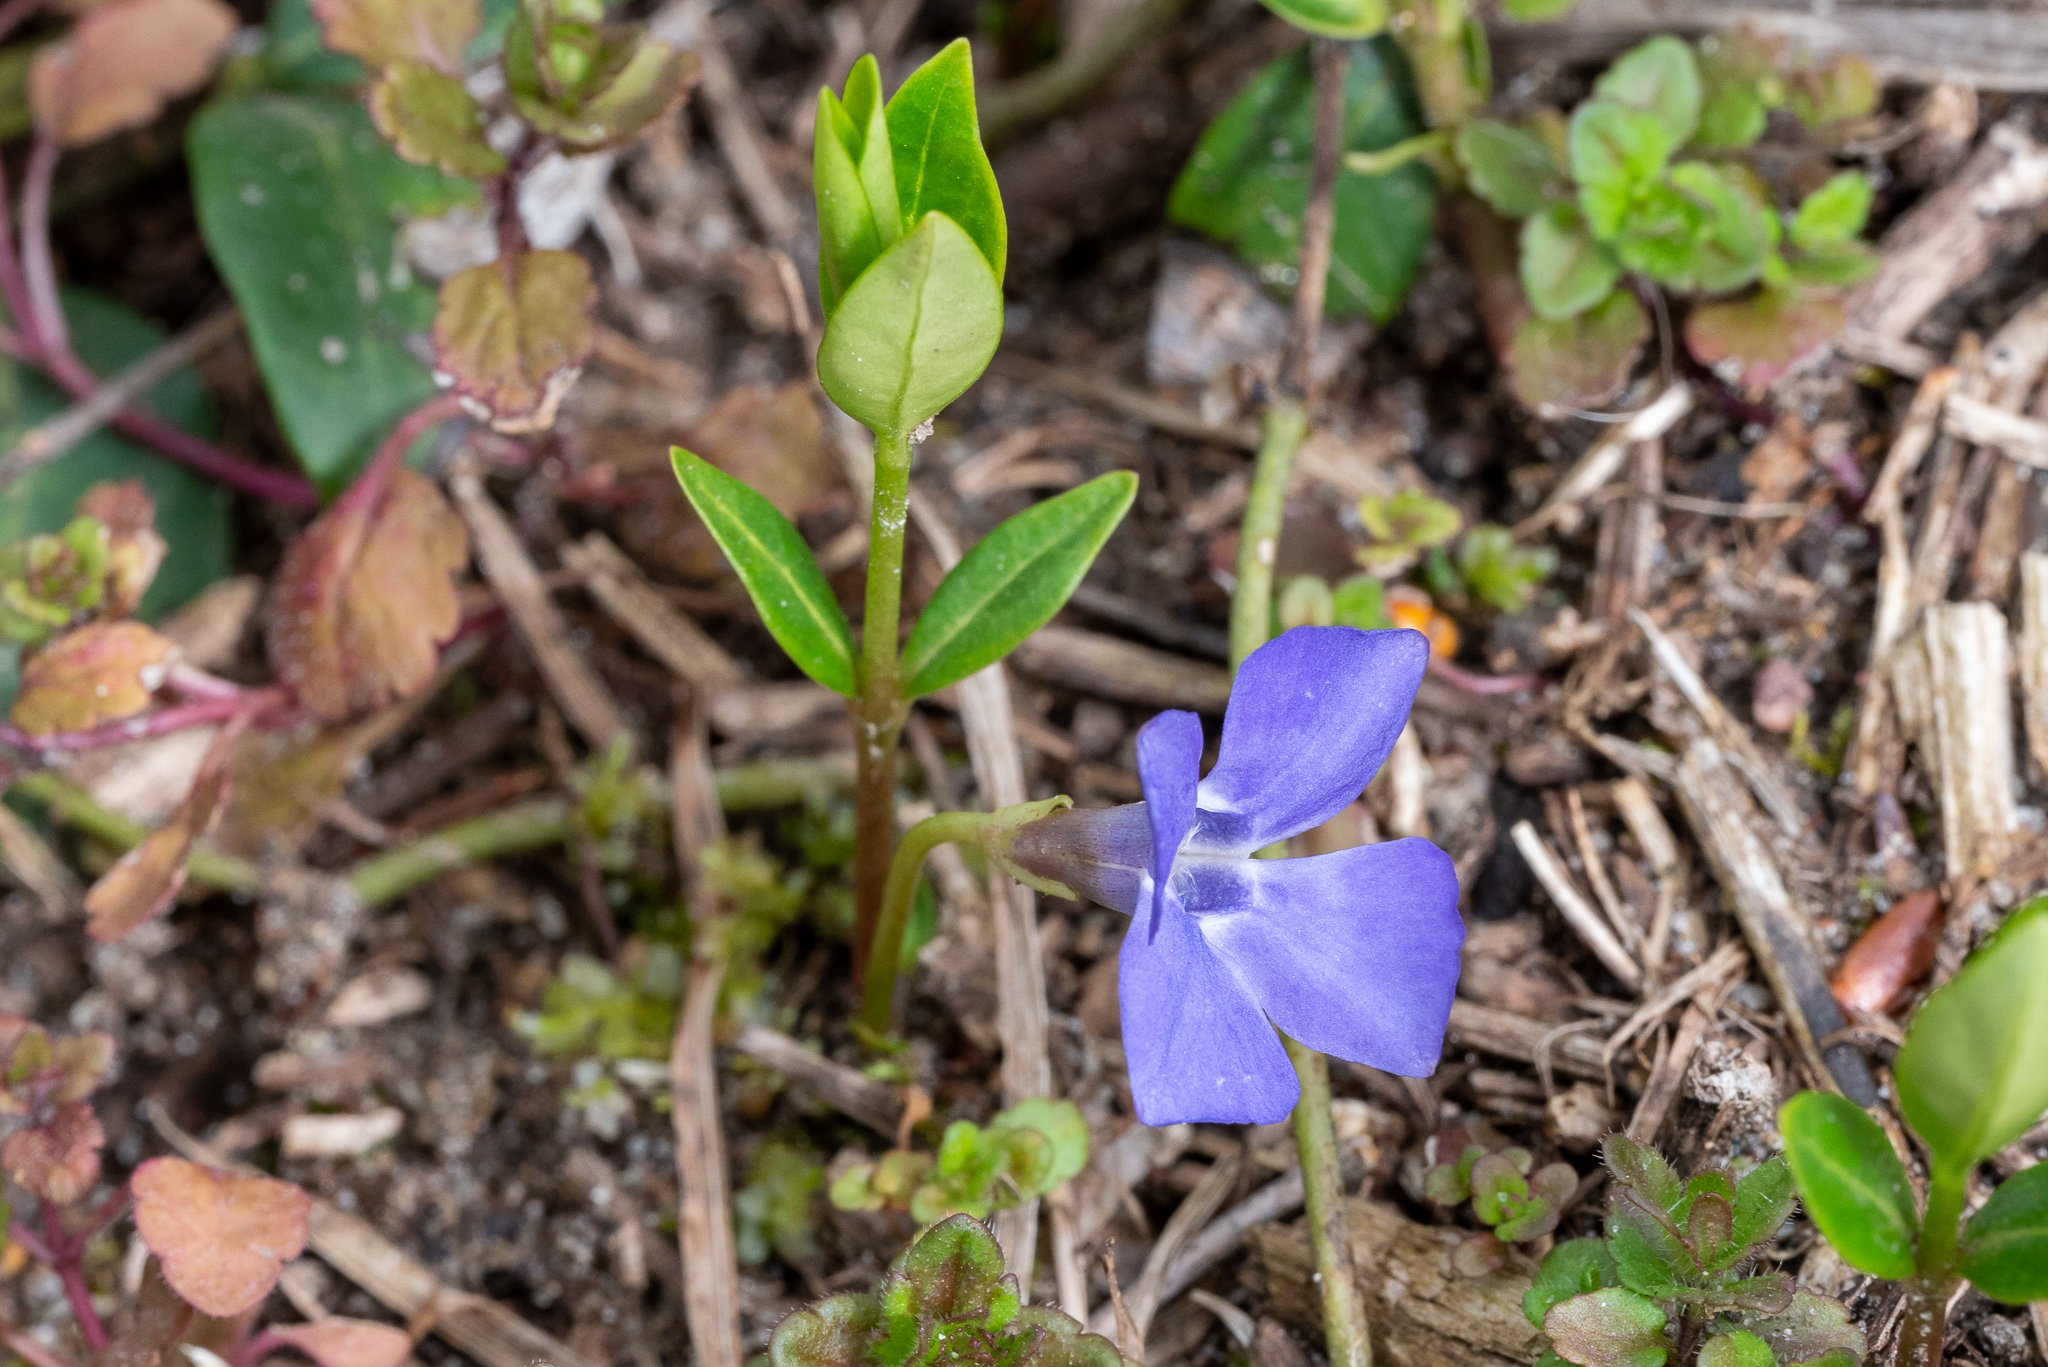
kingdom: Plantae
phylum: Tracheophyta
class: Magnoliopsida
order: Gentianales
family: Apocynaceae
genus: Vinca
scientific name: Vinca minor
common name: Lesser periwinkle
